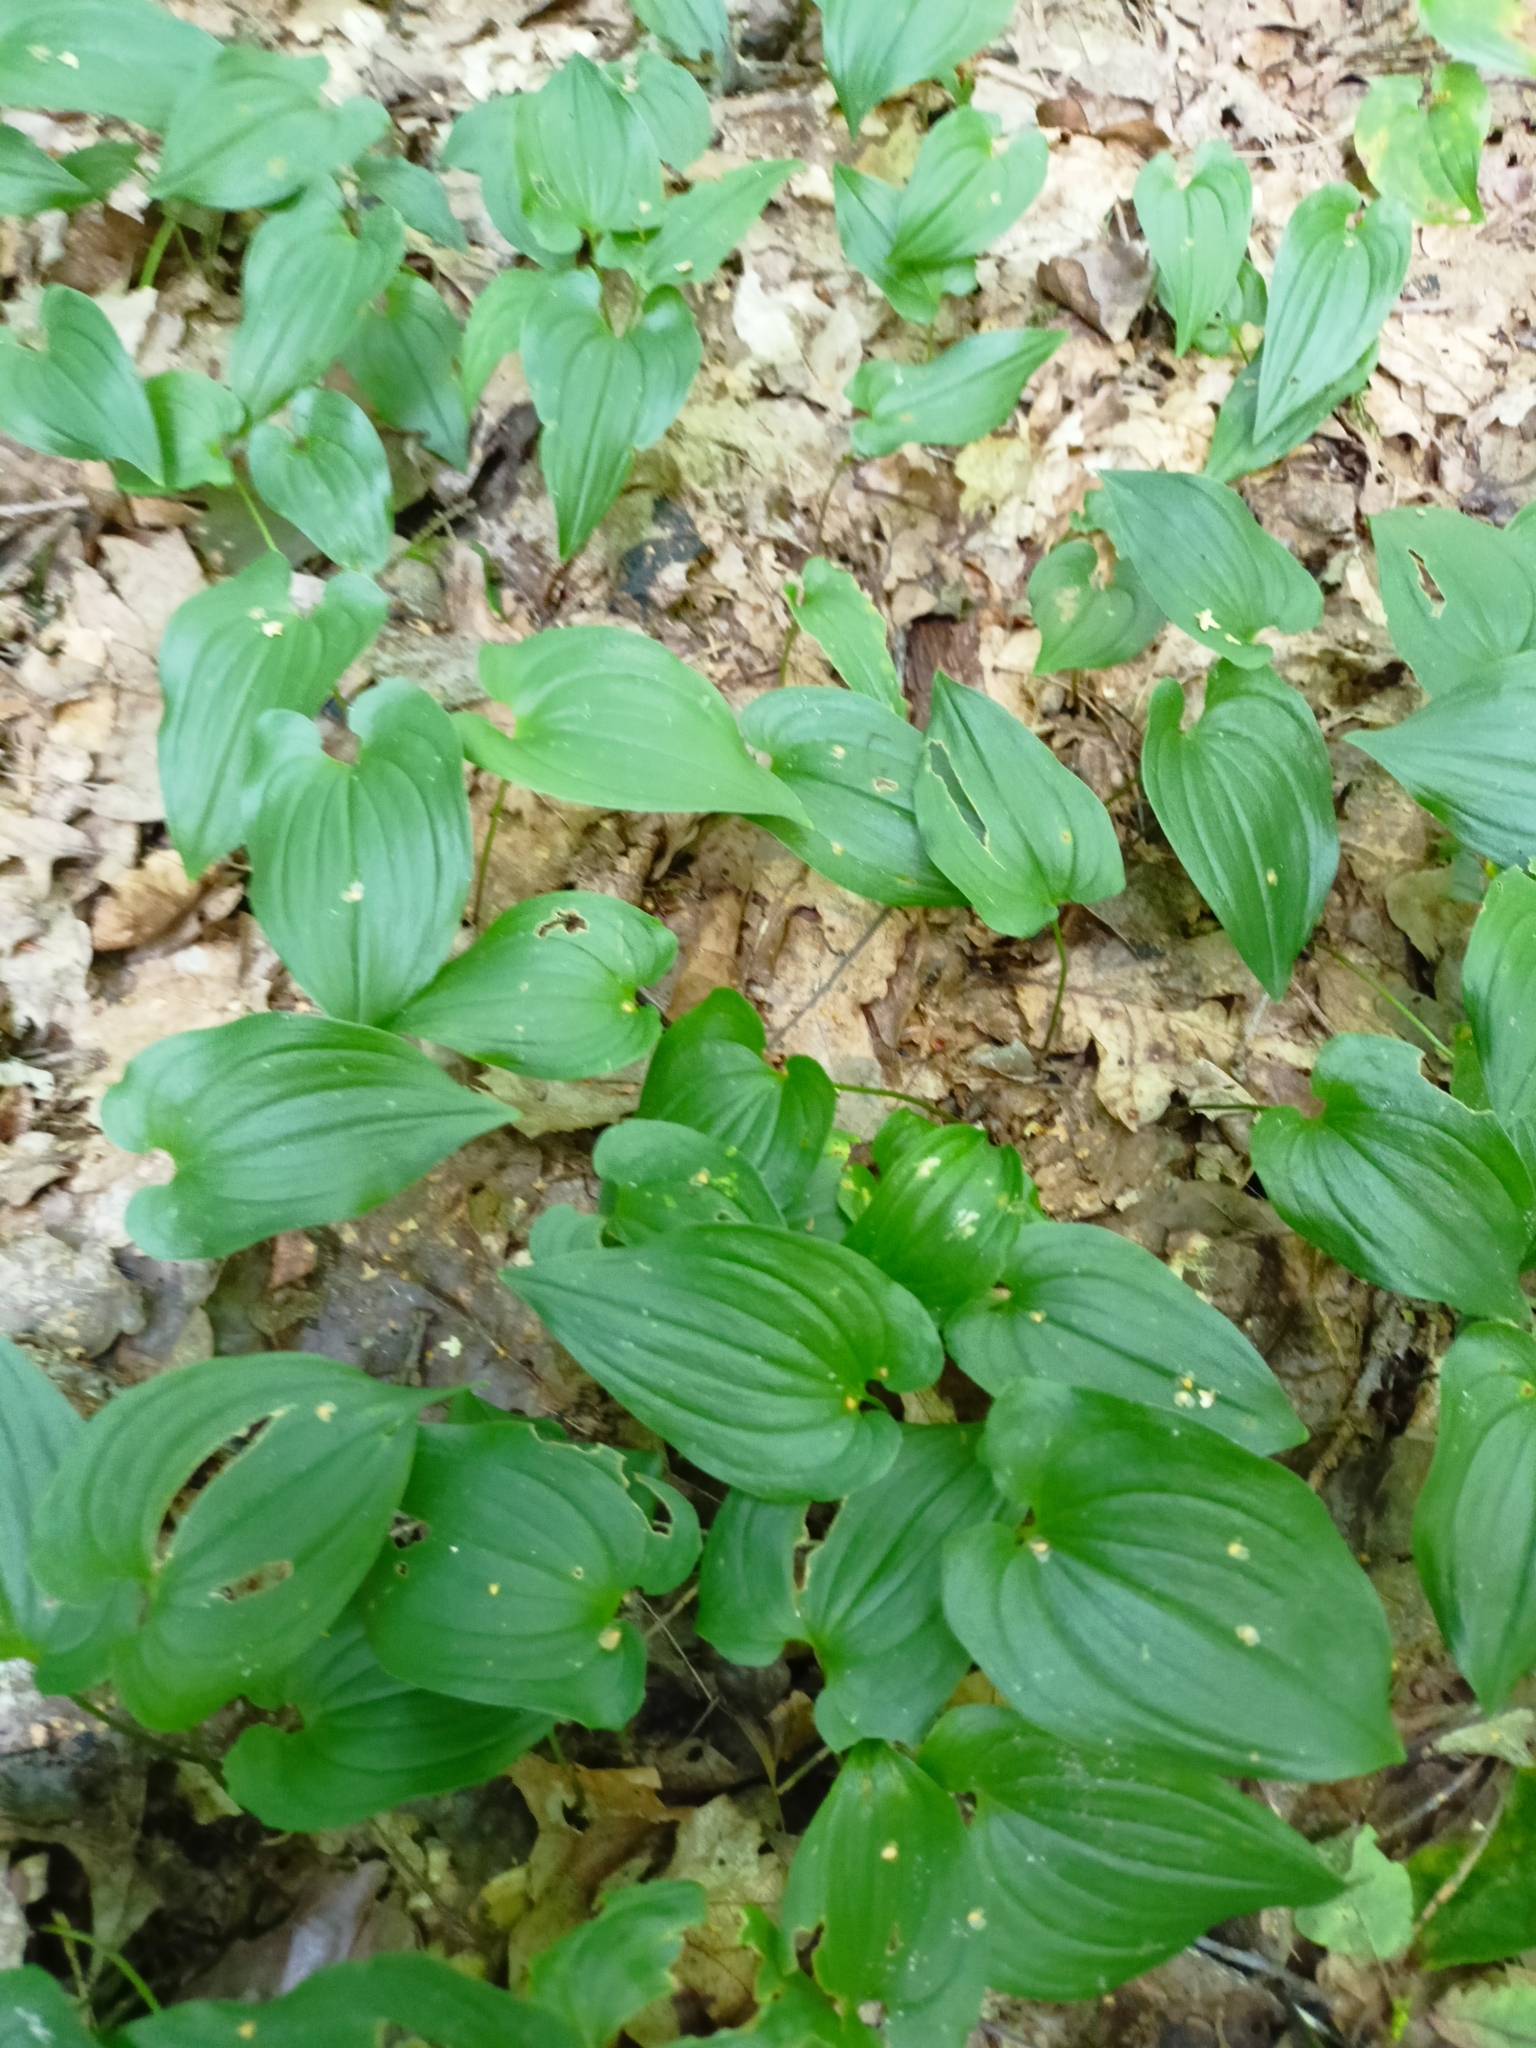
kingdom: Plantae
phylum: Tracheophyta
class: Liliopsida
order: Asparagales
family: Asparagaceae
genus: Maianthemum
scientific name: Maianthemum bifolium
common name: May lily
